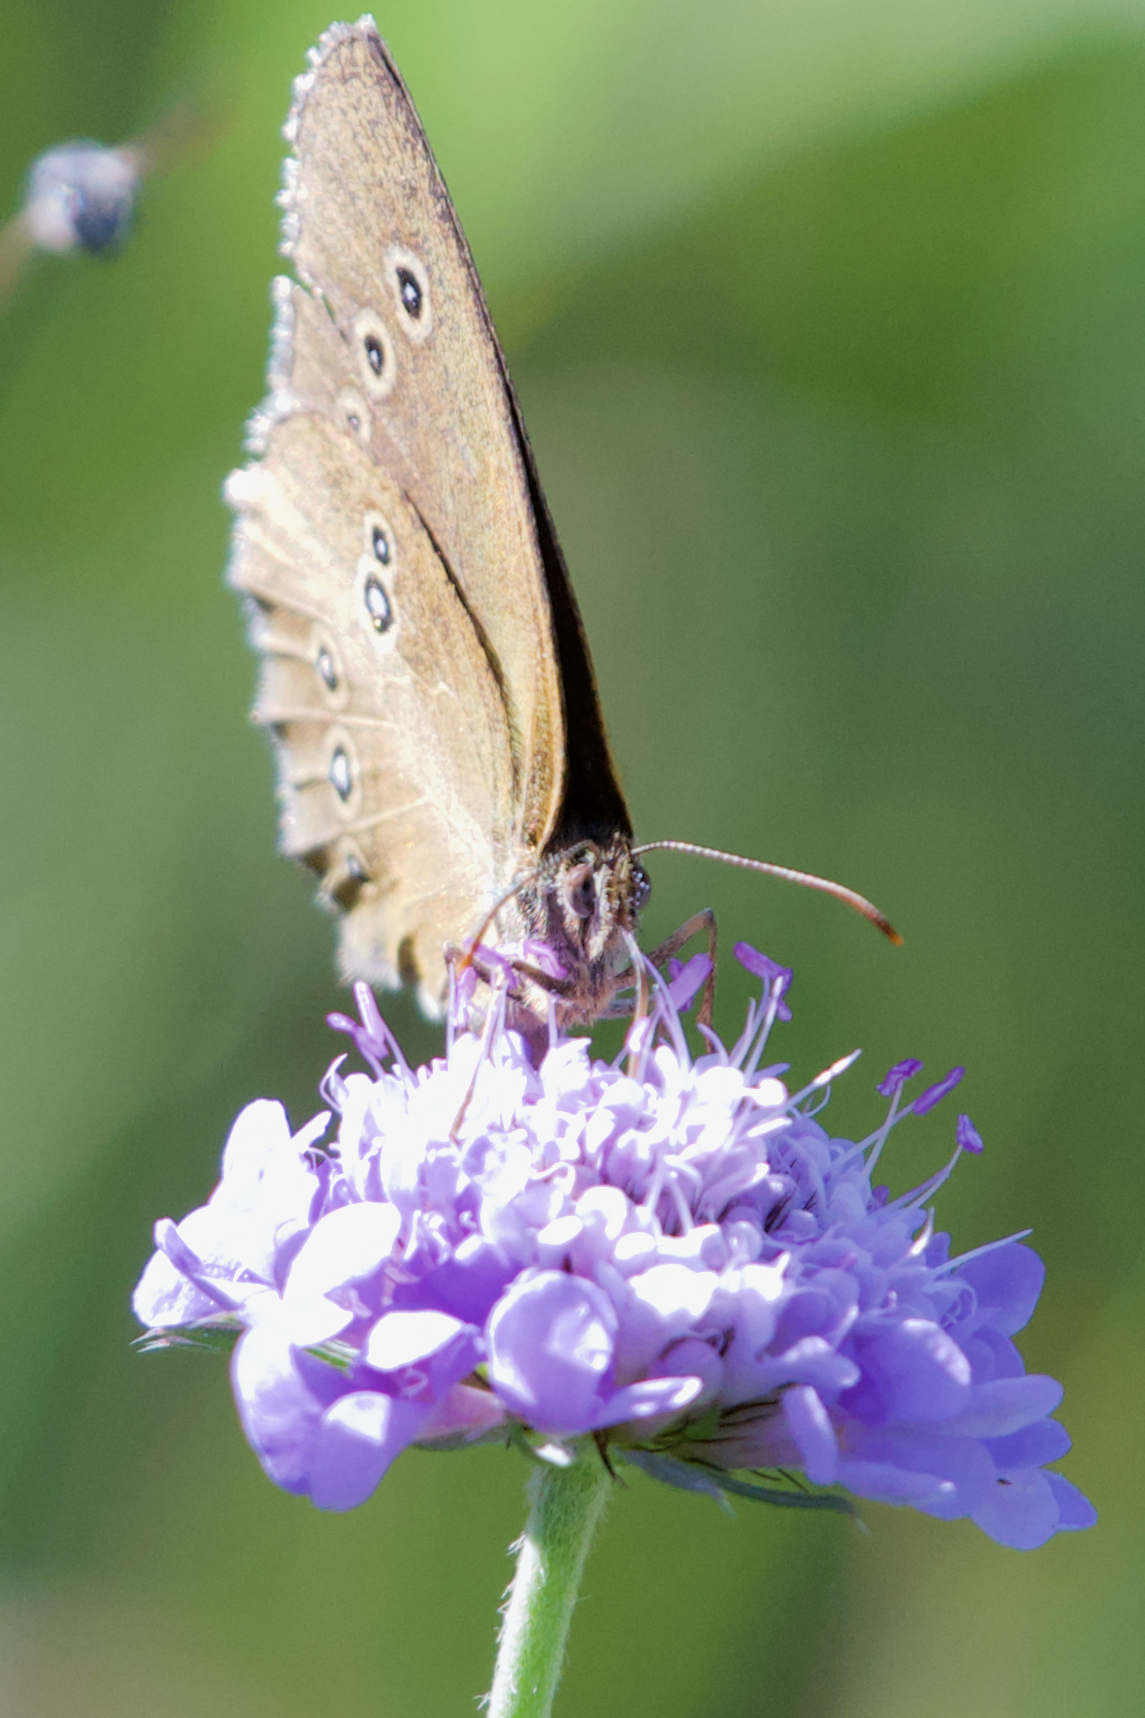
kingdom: Animalia
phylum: Arthropoda
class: Insecta
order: Lepidoptera
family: Nymphalidae
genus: Aphantopus
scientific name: Aphantopus hyperantus
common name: Ringlet
